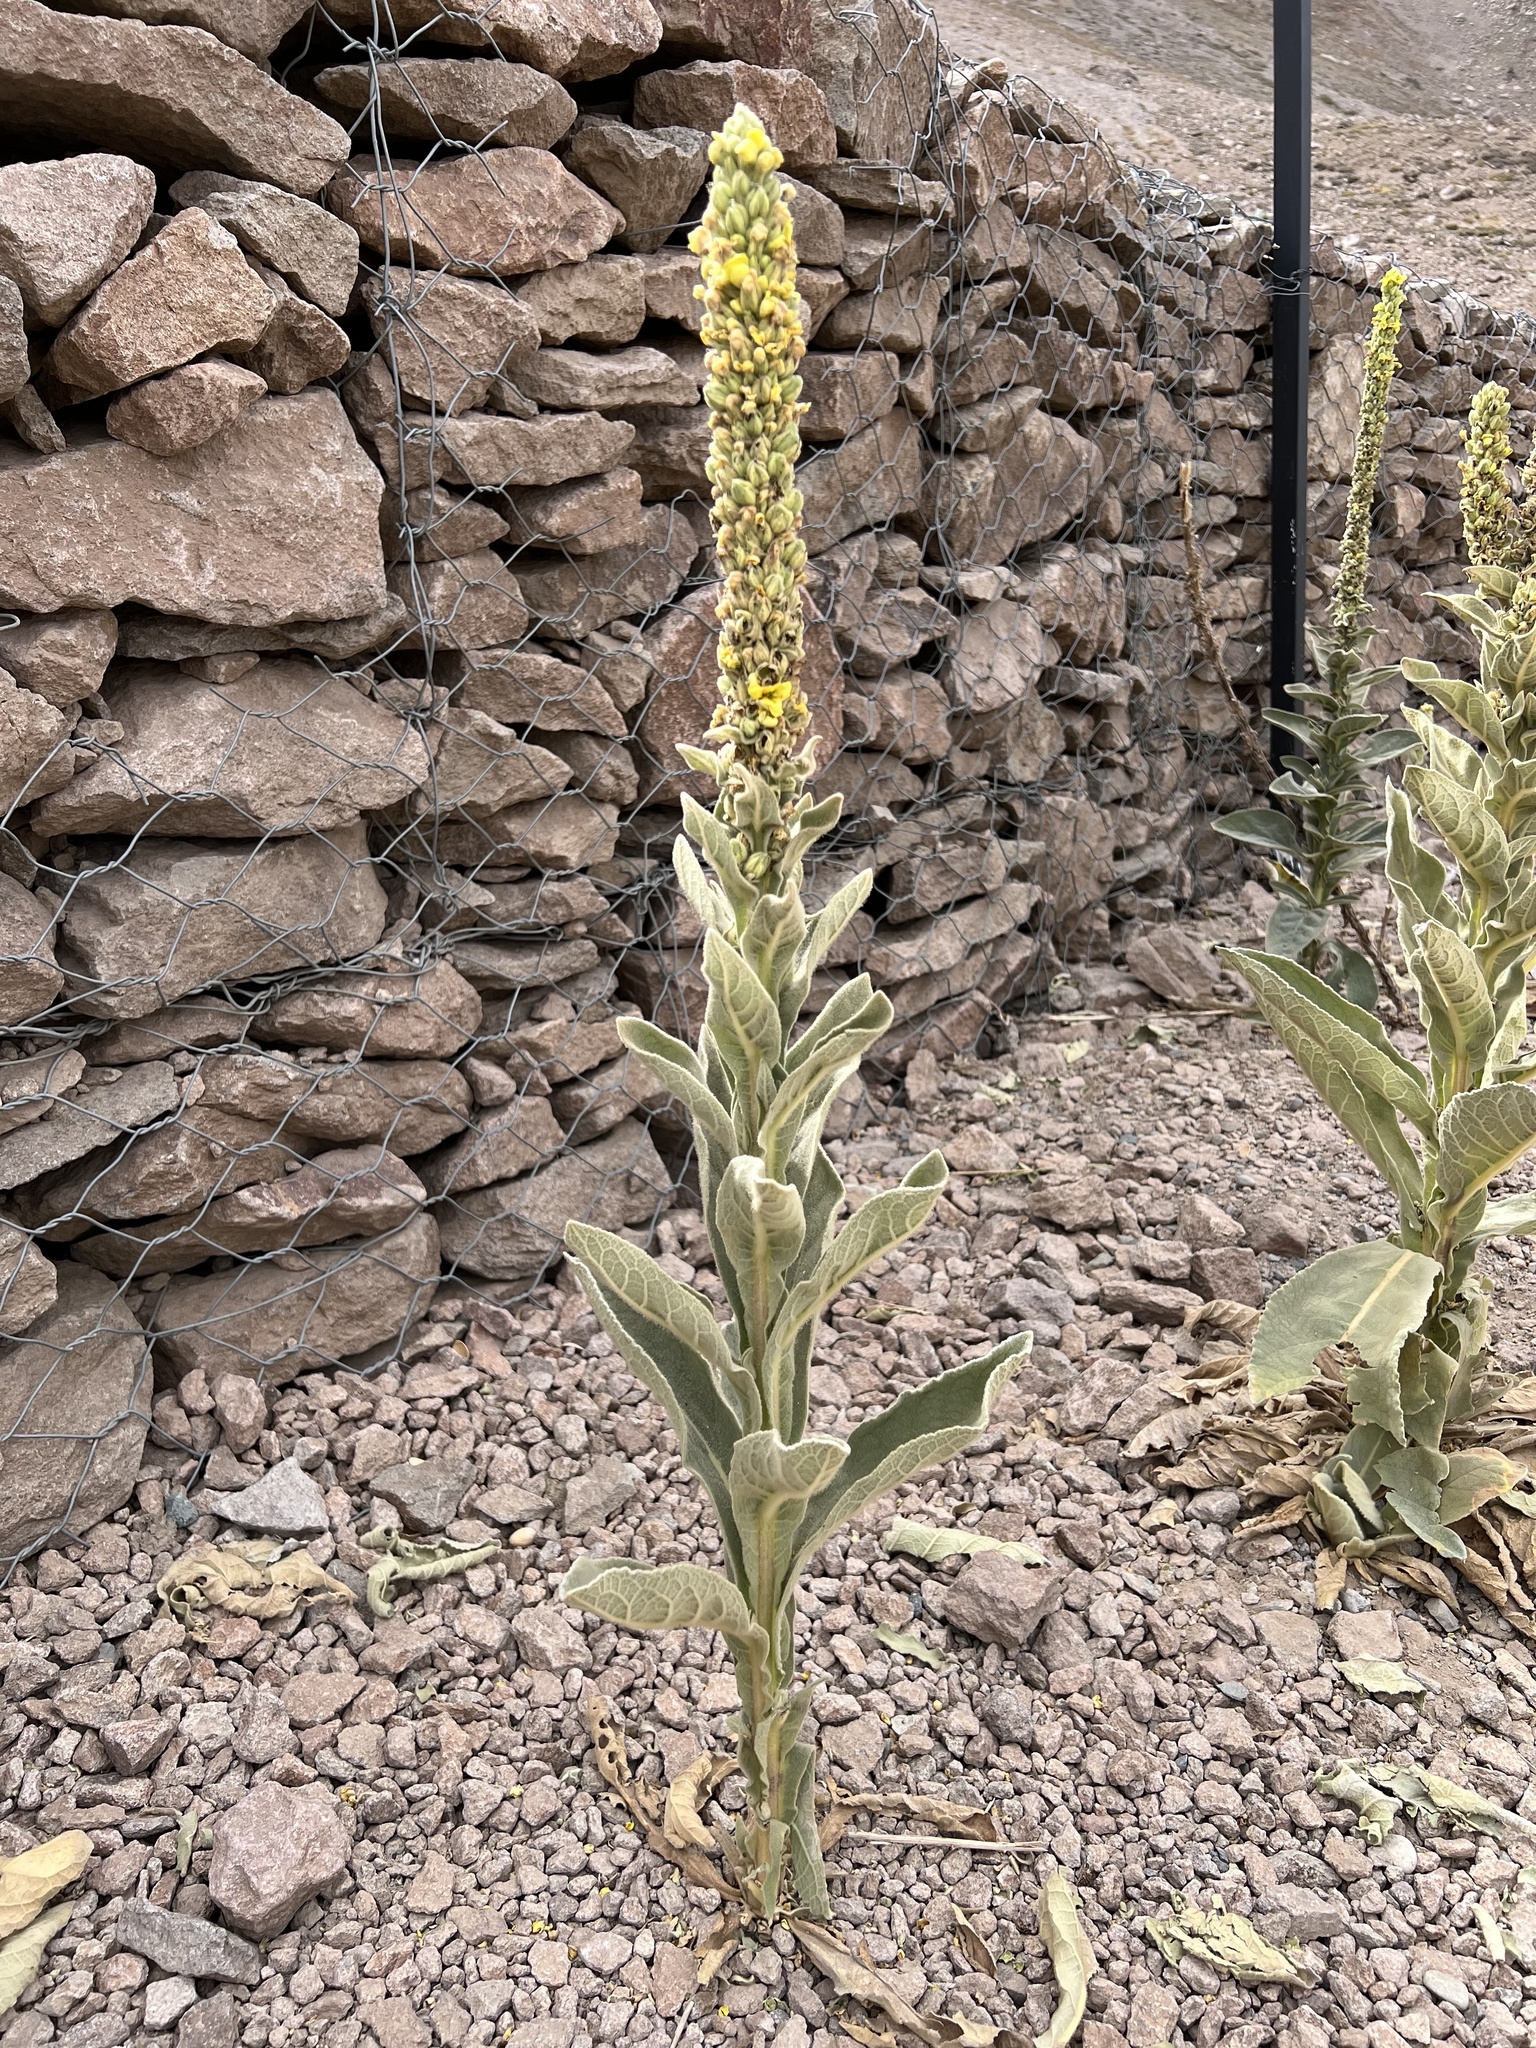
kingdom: Plantae
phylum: Tracheophyta
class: Magnoliopsida
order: Lamiales
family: Scrophulariaceae
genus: Verbascum
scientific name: Verbascum thapsus
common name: Common mullein
